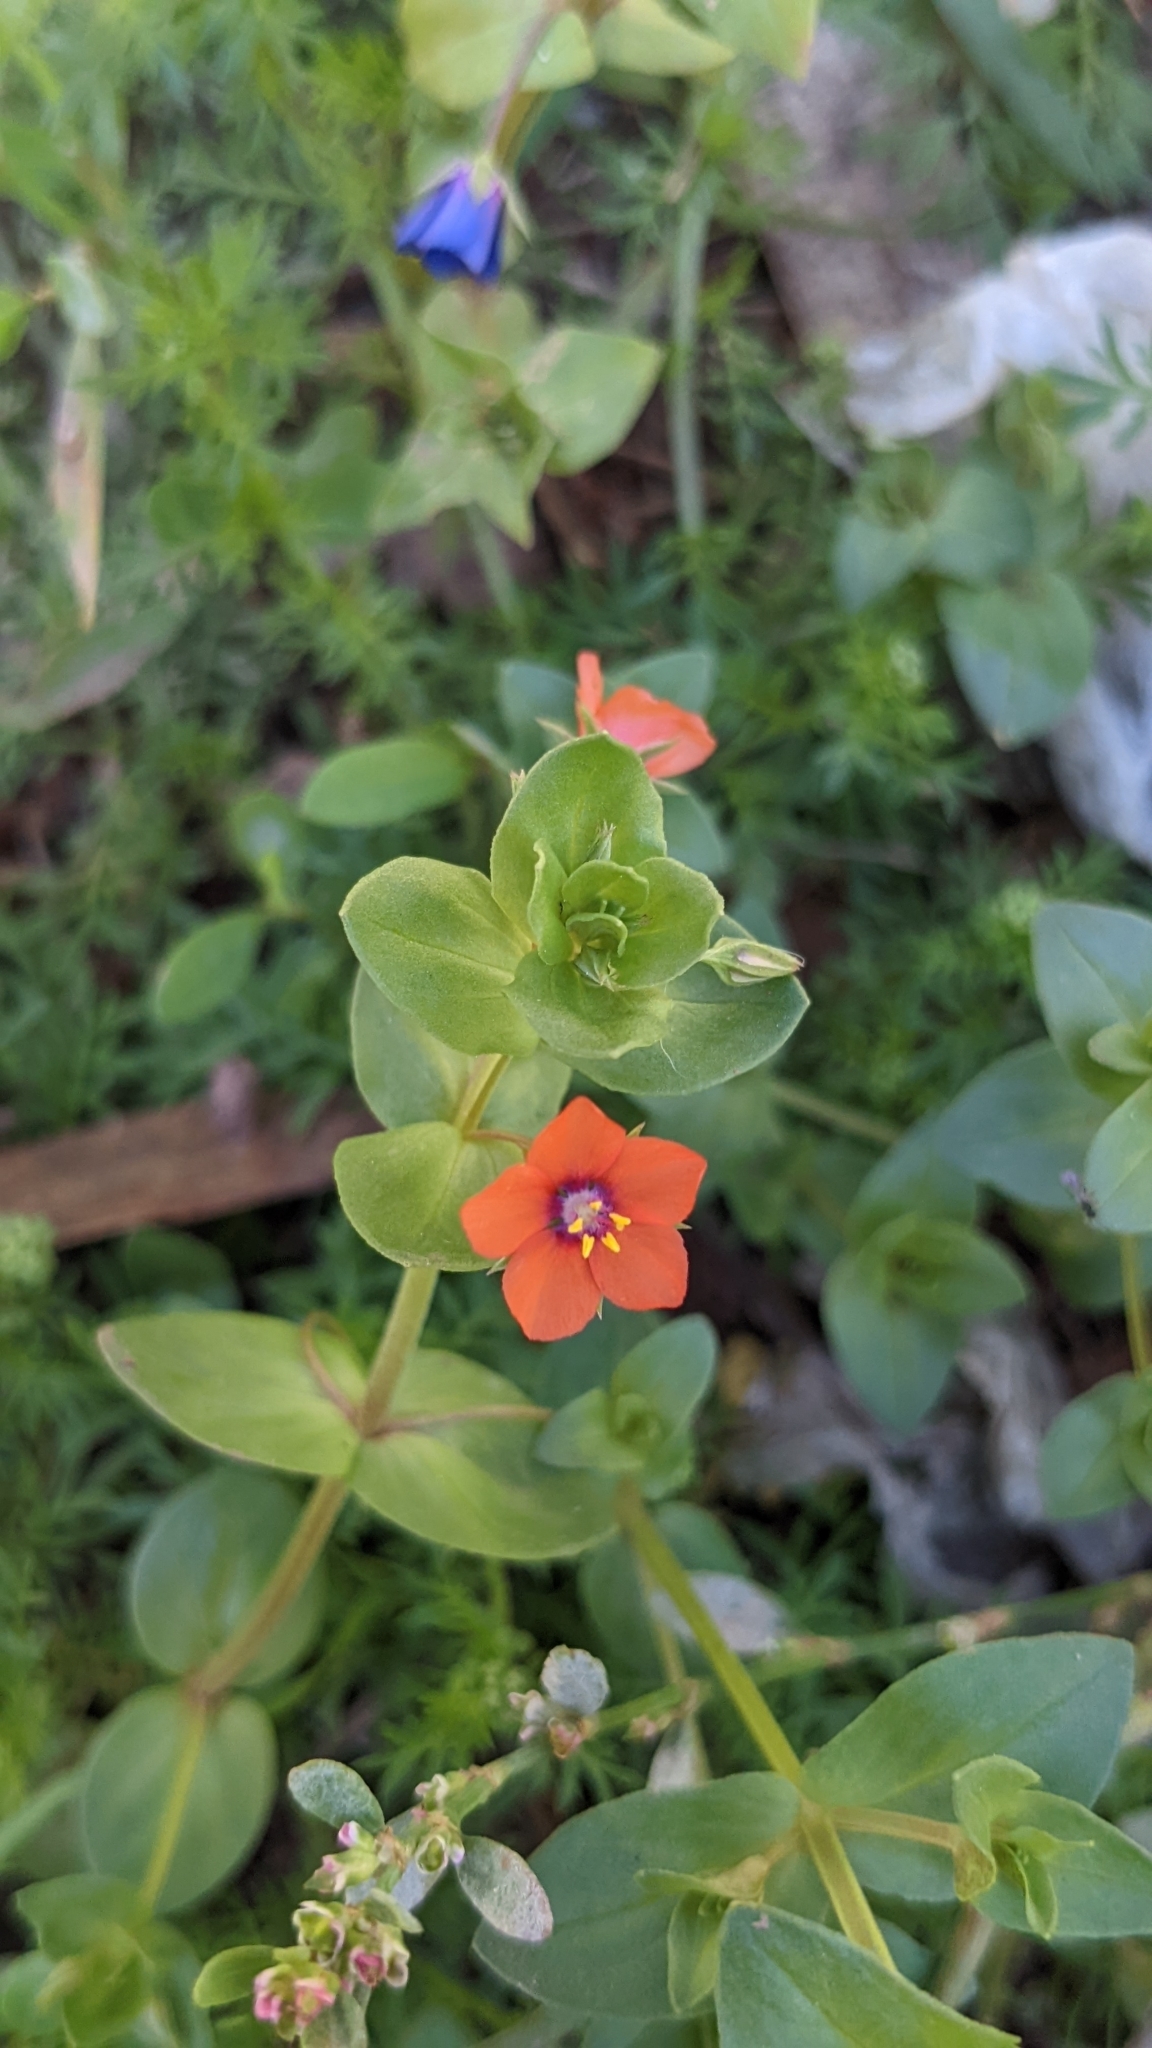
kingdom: Plantae
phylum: Tracheophyta
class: Magnoliopsida
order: Ericales
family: Primulaceae
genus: Lysimachia
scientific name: Lysimachia arvensis
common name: Scarlet pimpernel
